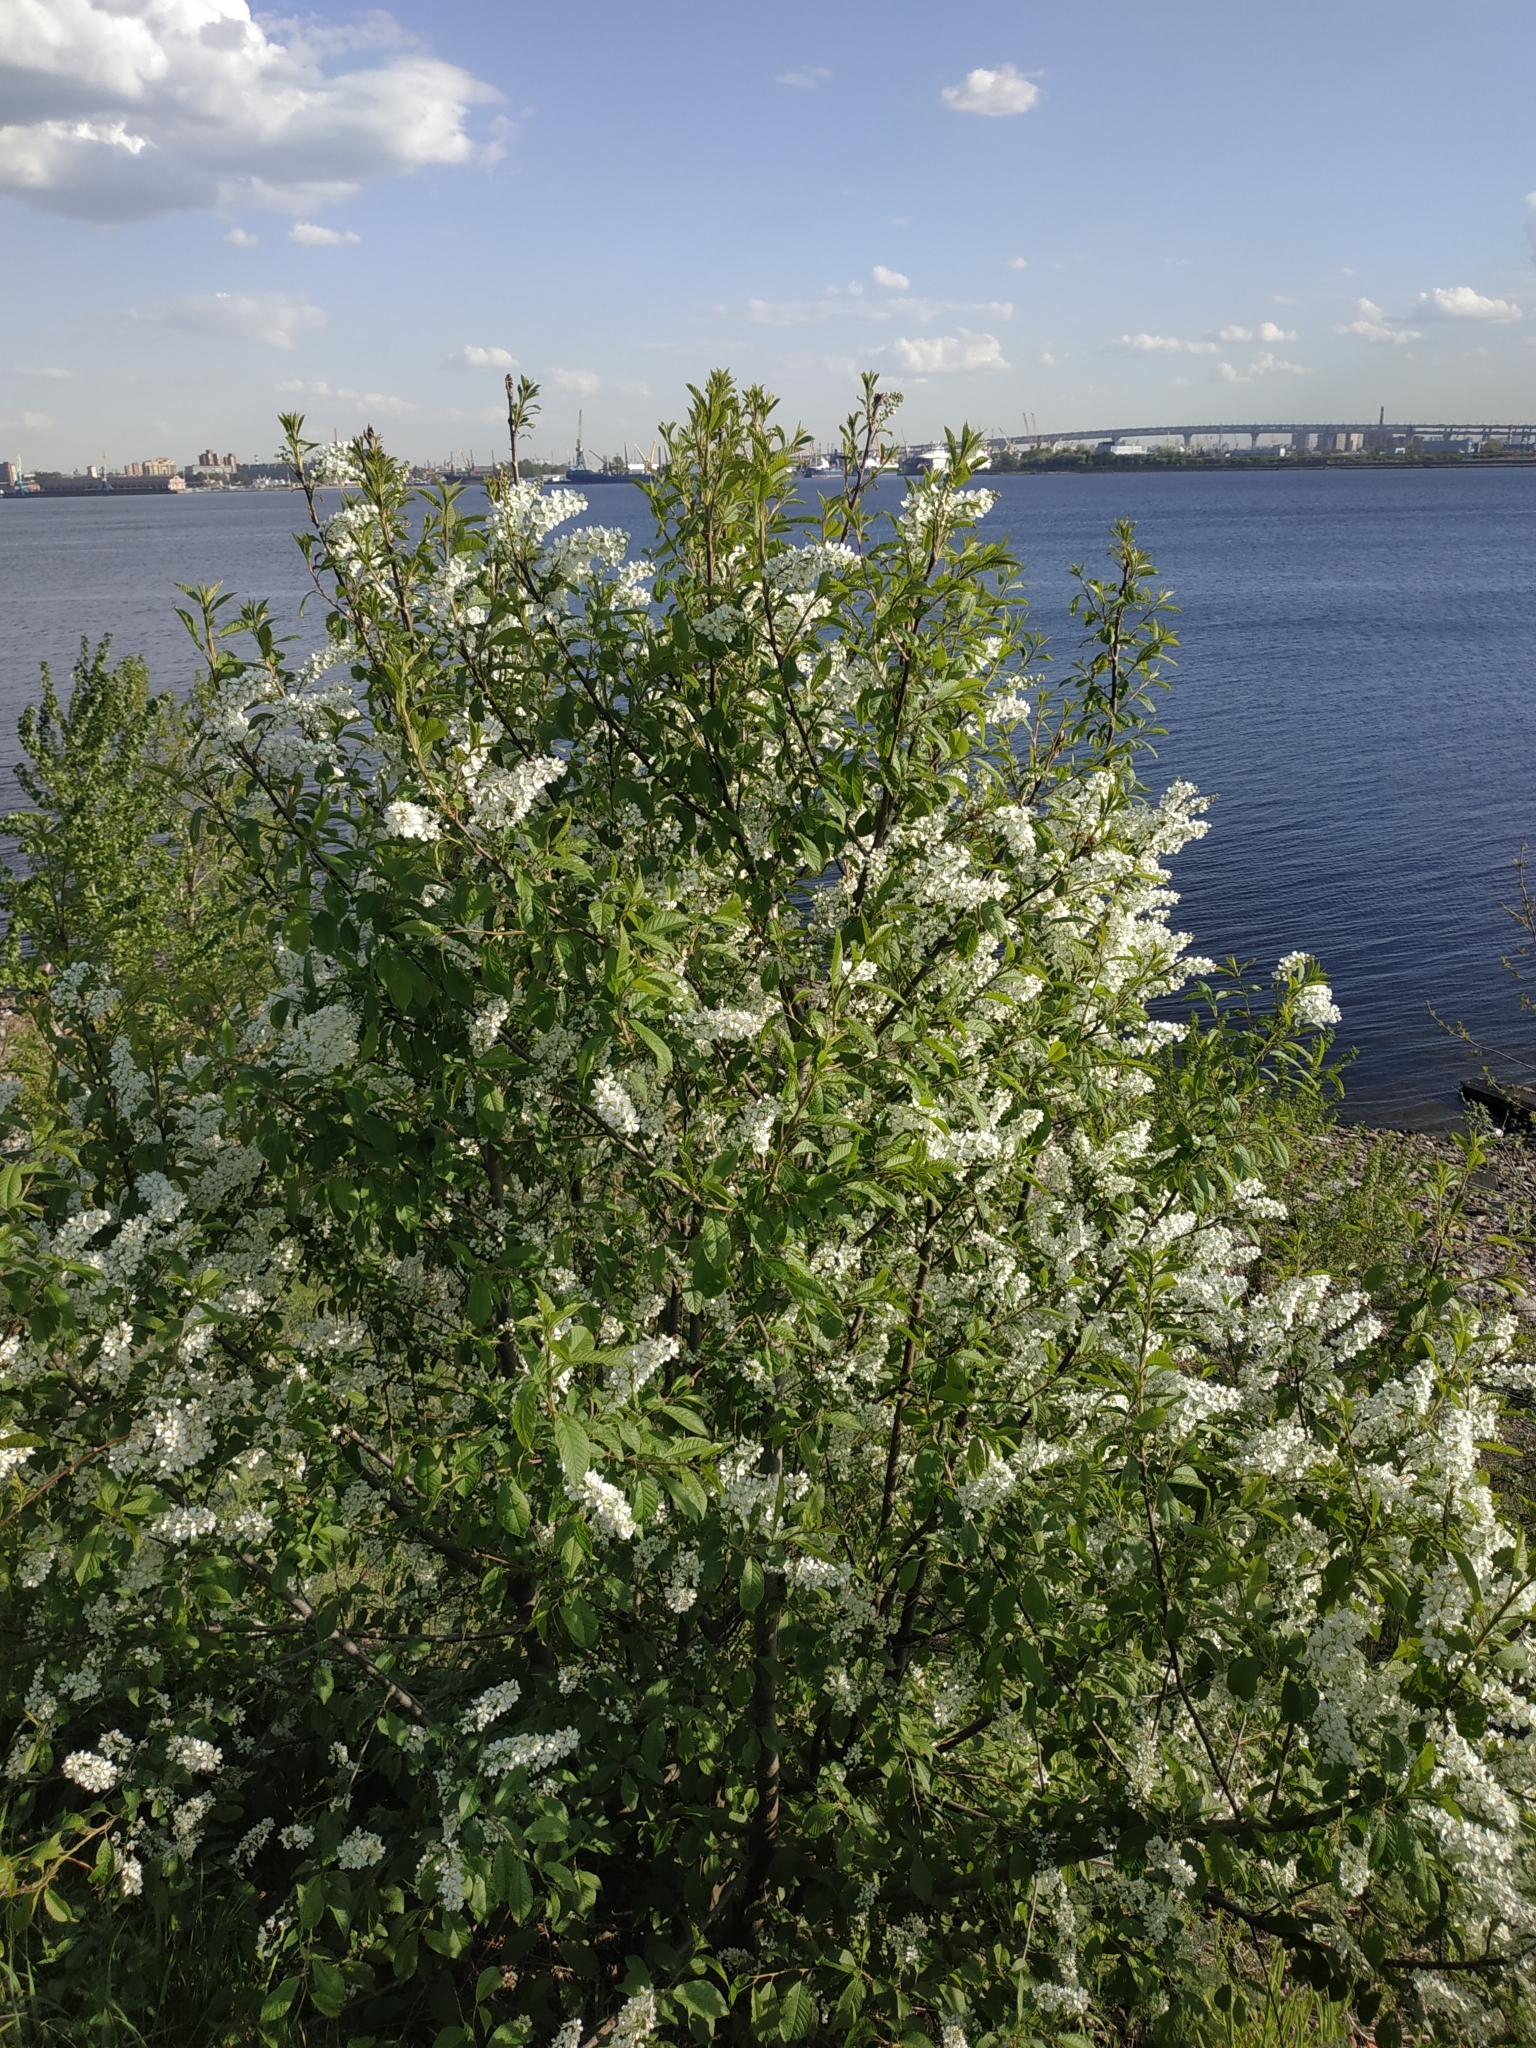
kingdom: Plantae
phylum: Tracheophyta
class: Magnoliopsida
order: Rosales
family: Rosaceae
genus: Prunus
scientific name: Prunus padus
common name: Bird cherry
